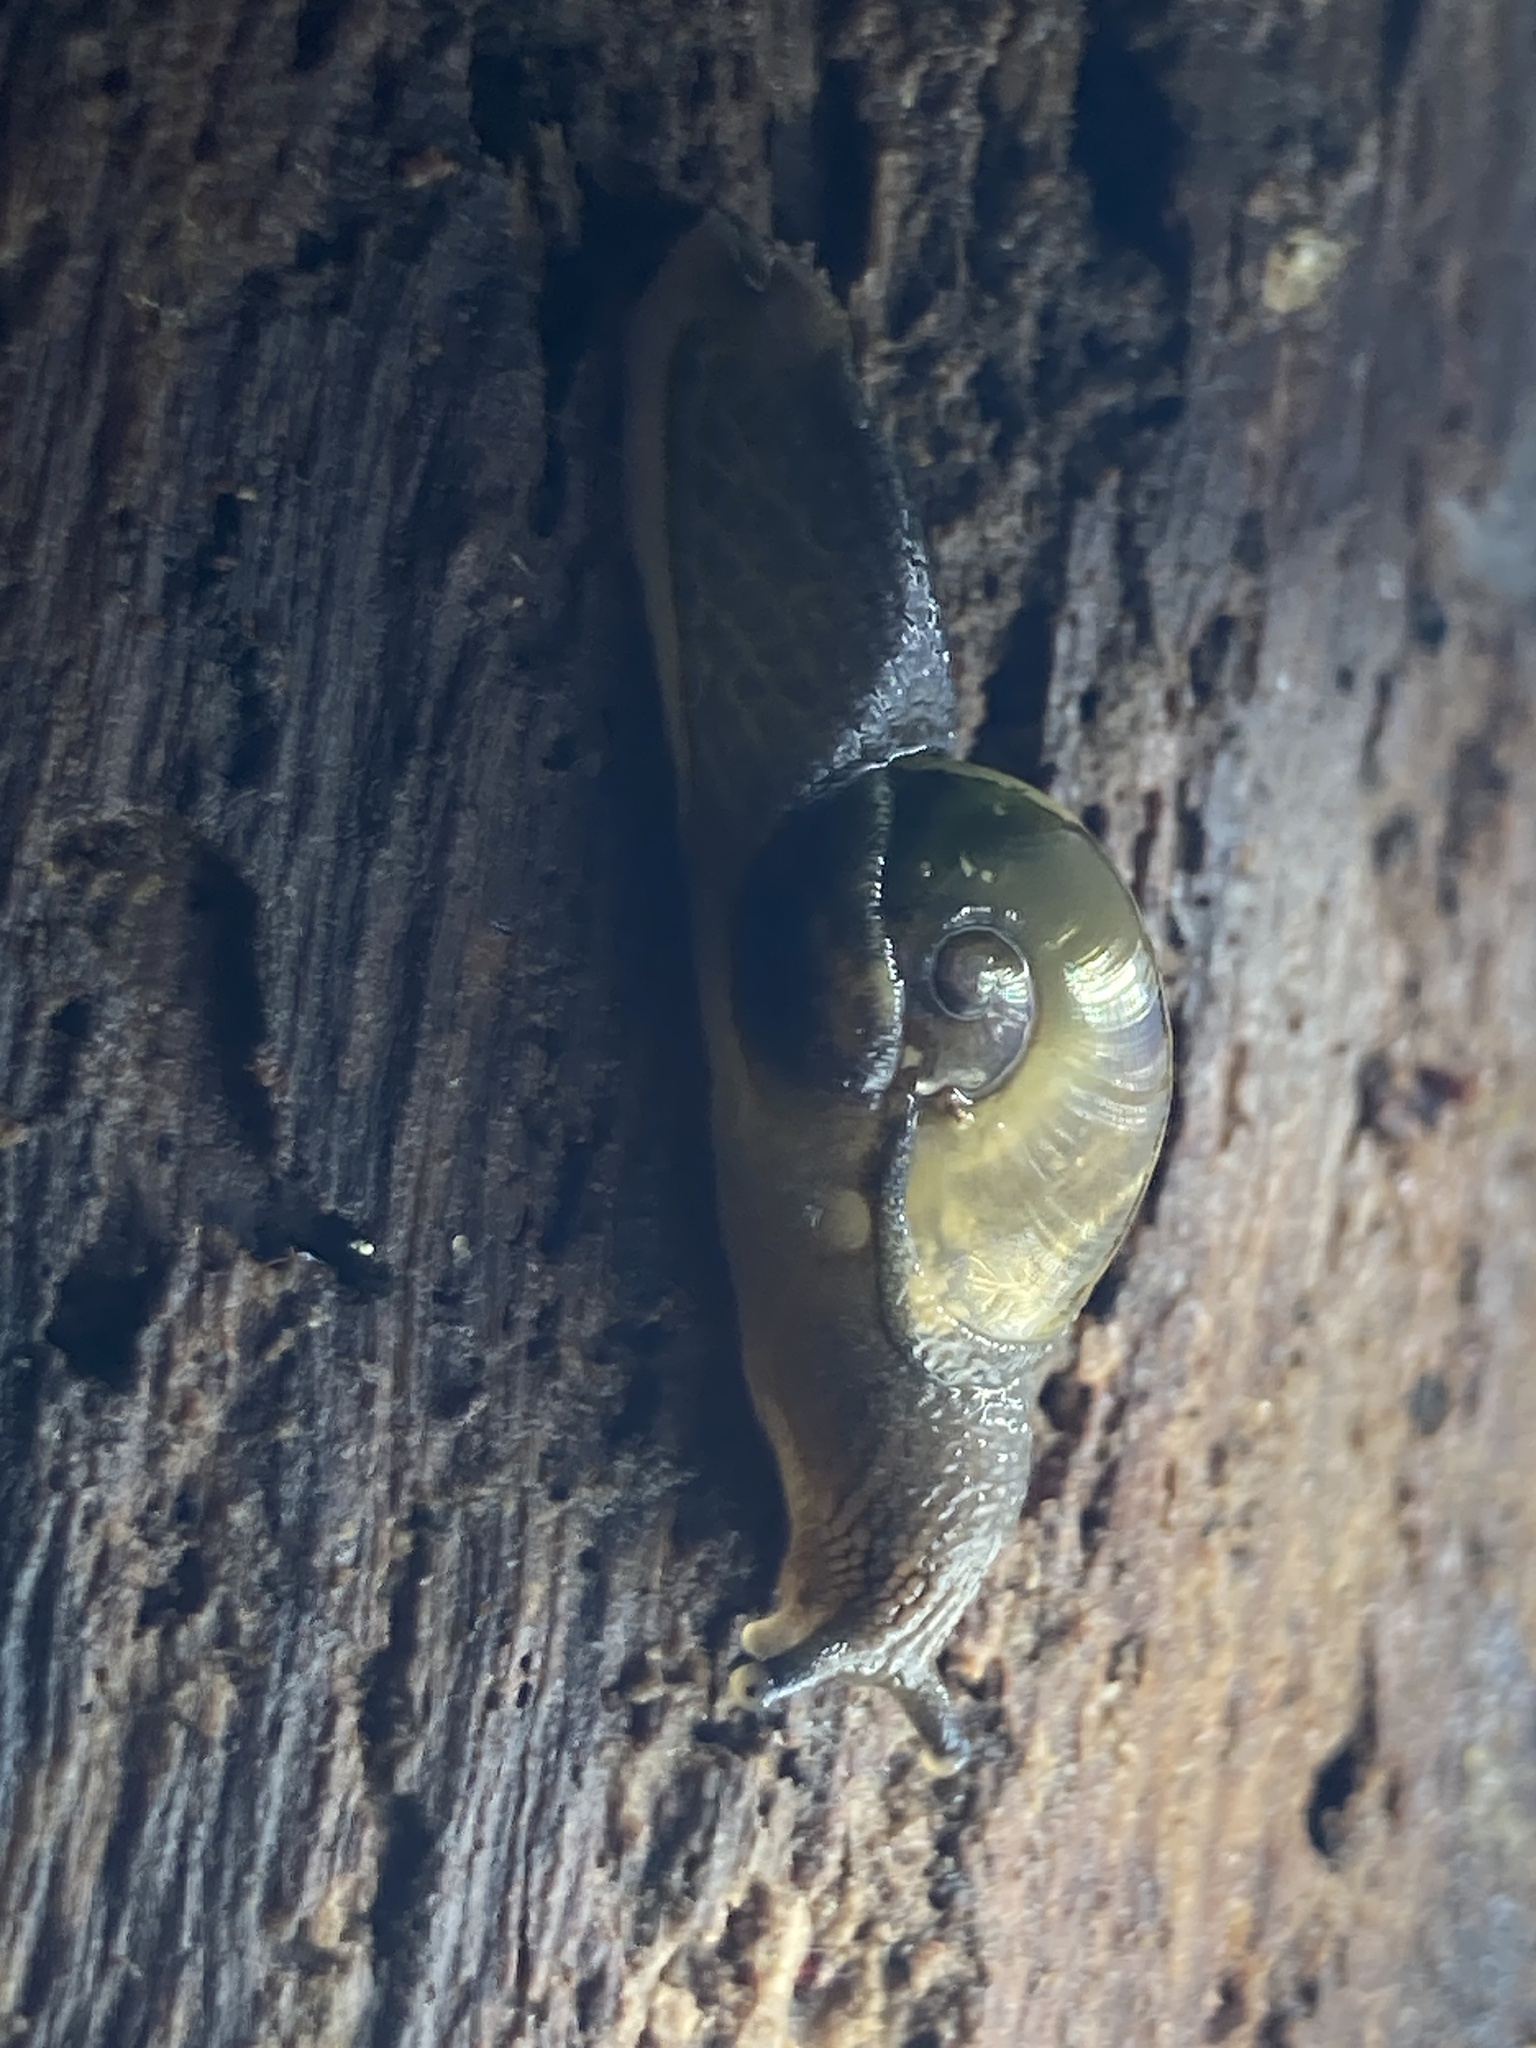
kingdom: Animalia
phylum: Mollusca
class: Gastropoda
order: Stylommatophora
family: Helicarionidae
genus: Helicarion
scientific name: Helicarion mastersi
